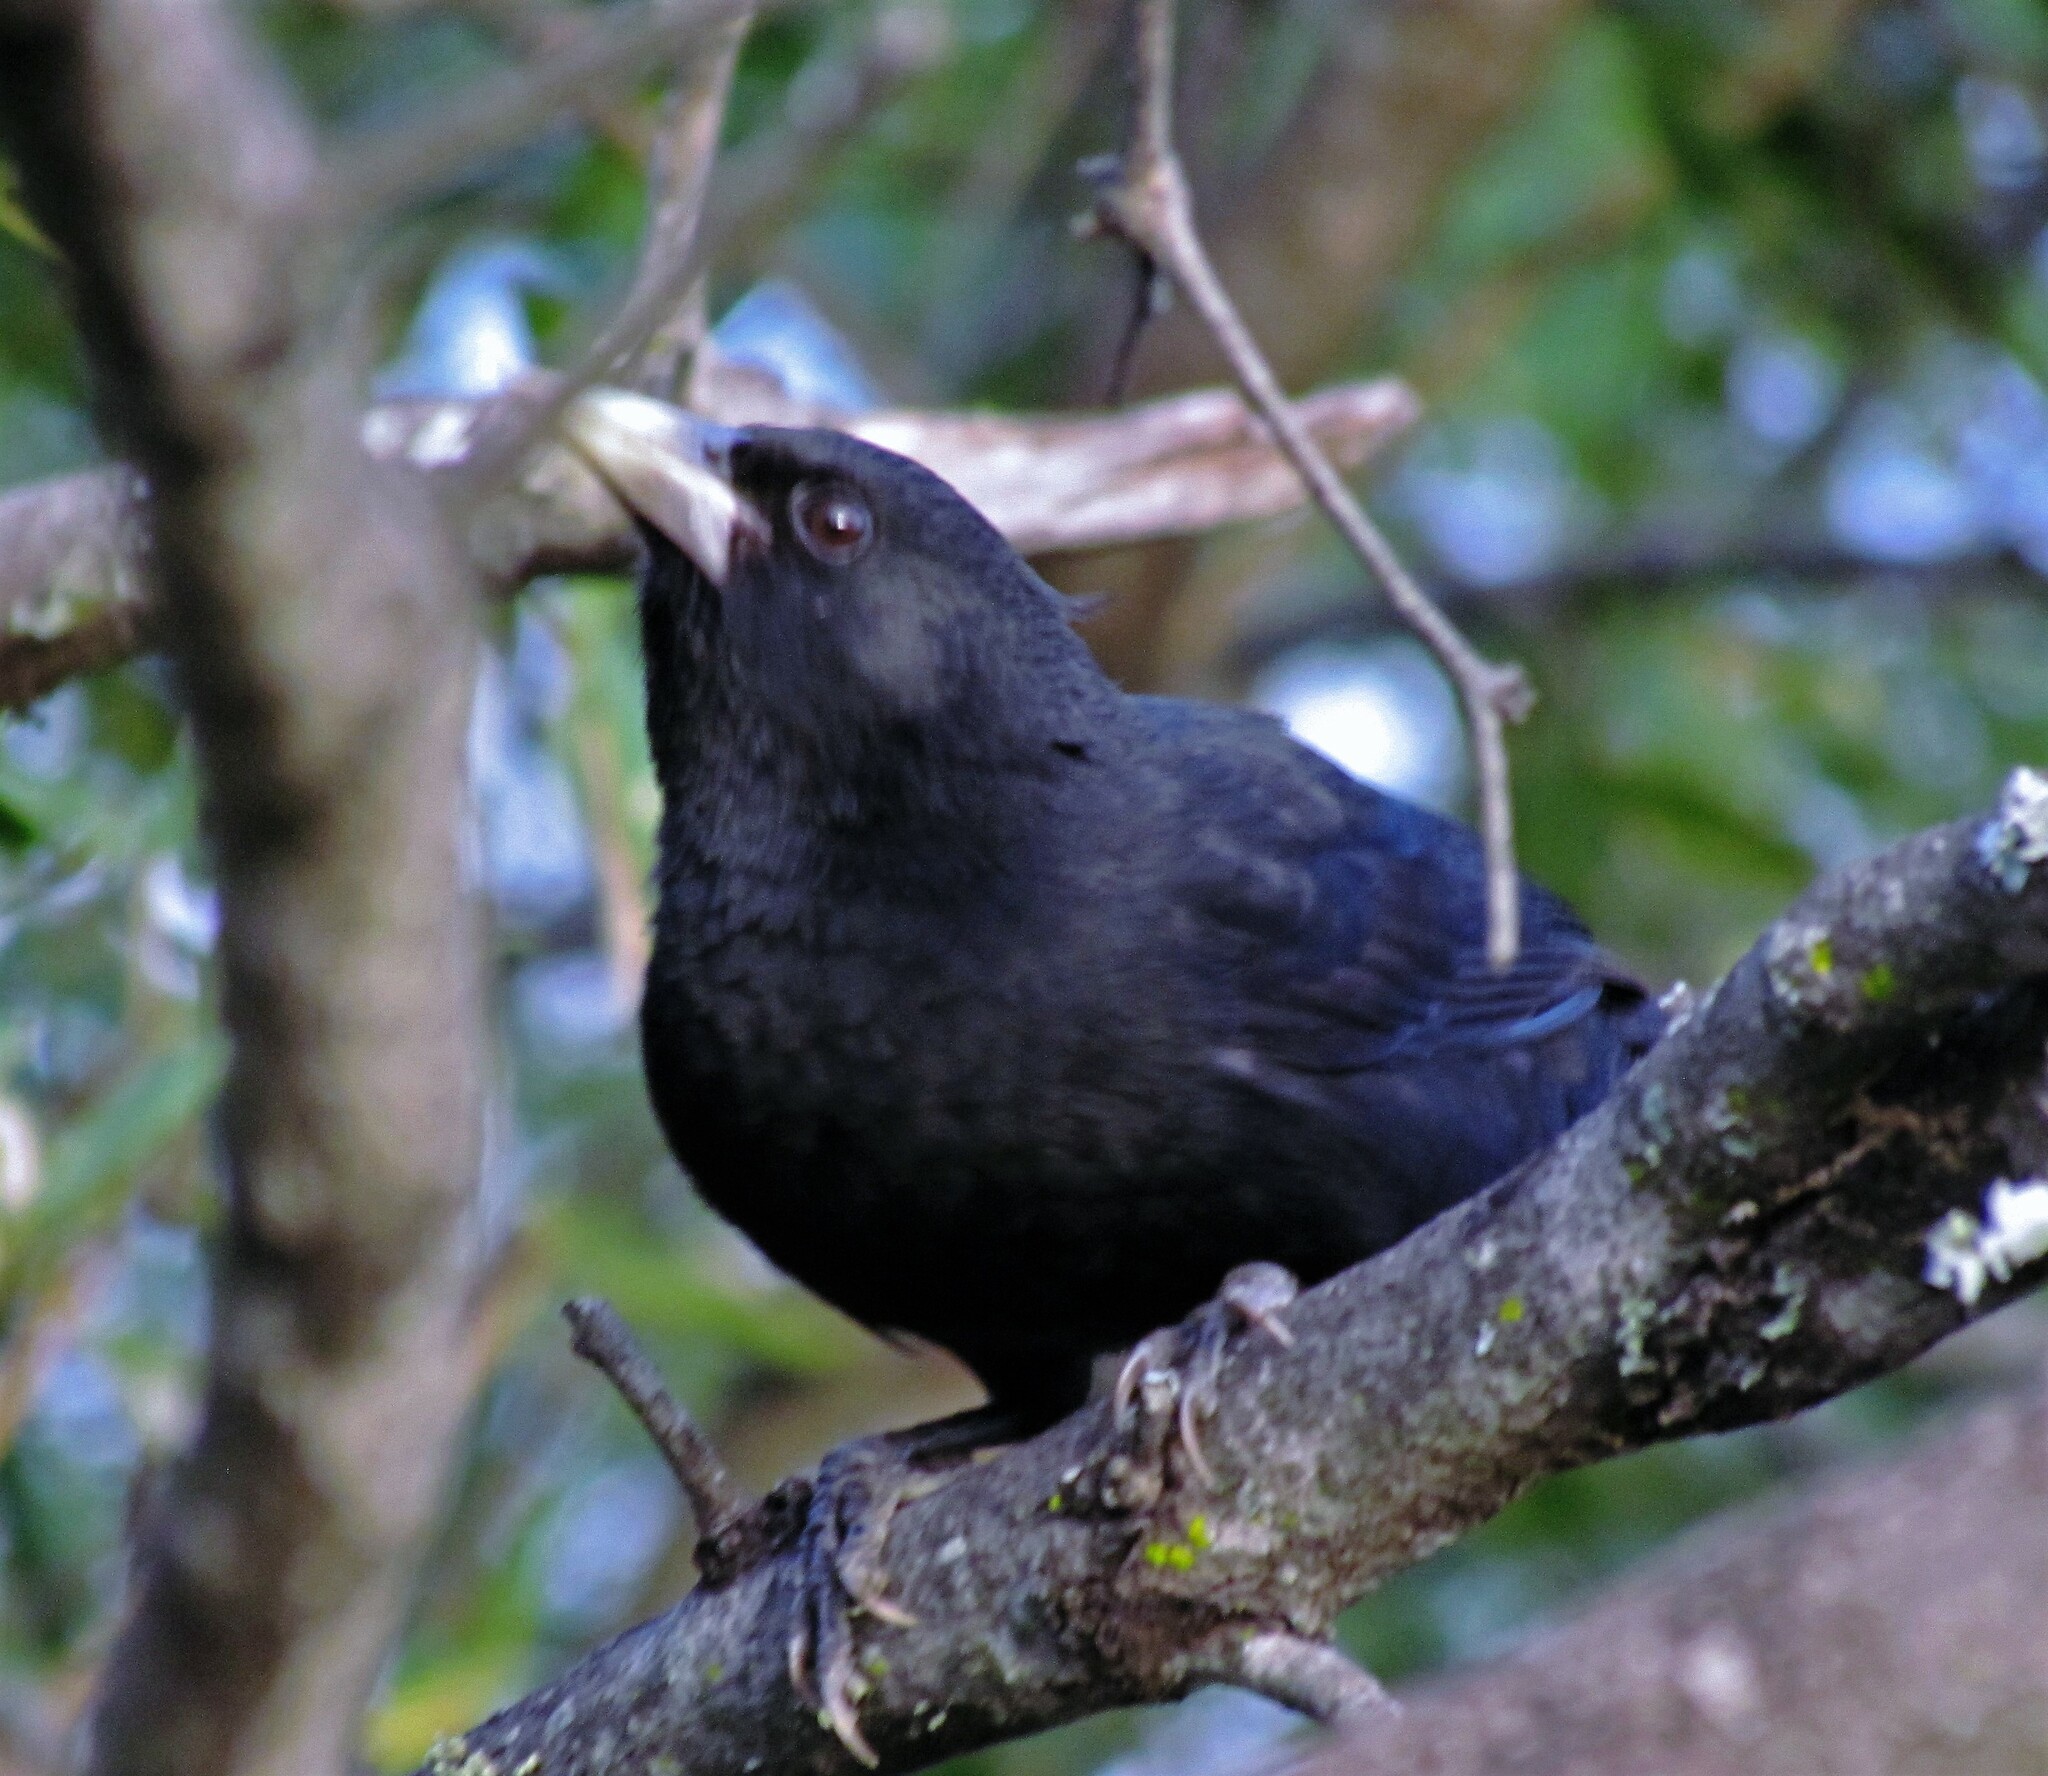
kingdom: Animalia
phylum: Chordata
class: Aves
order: Passeriformes
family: Icteridae
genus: Cacicus
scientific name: Cacicus solitarius
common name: Solitary cacique
